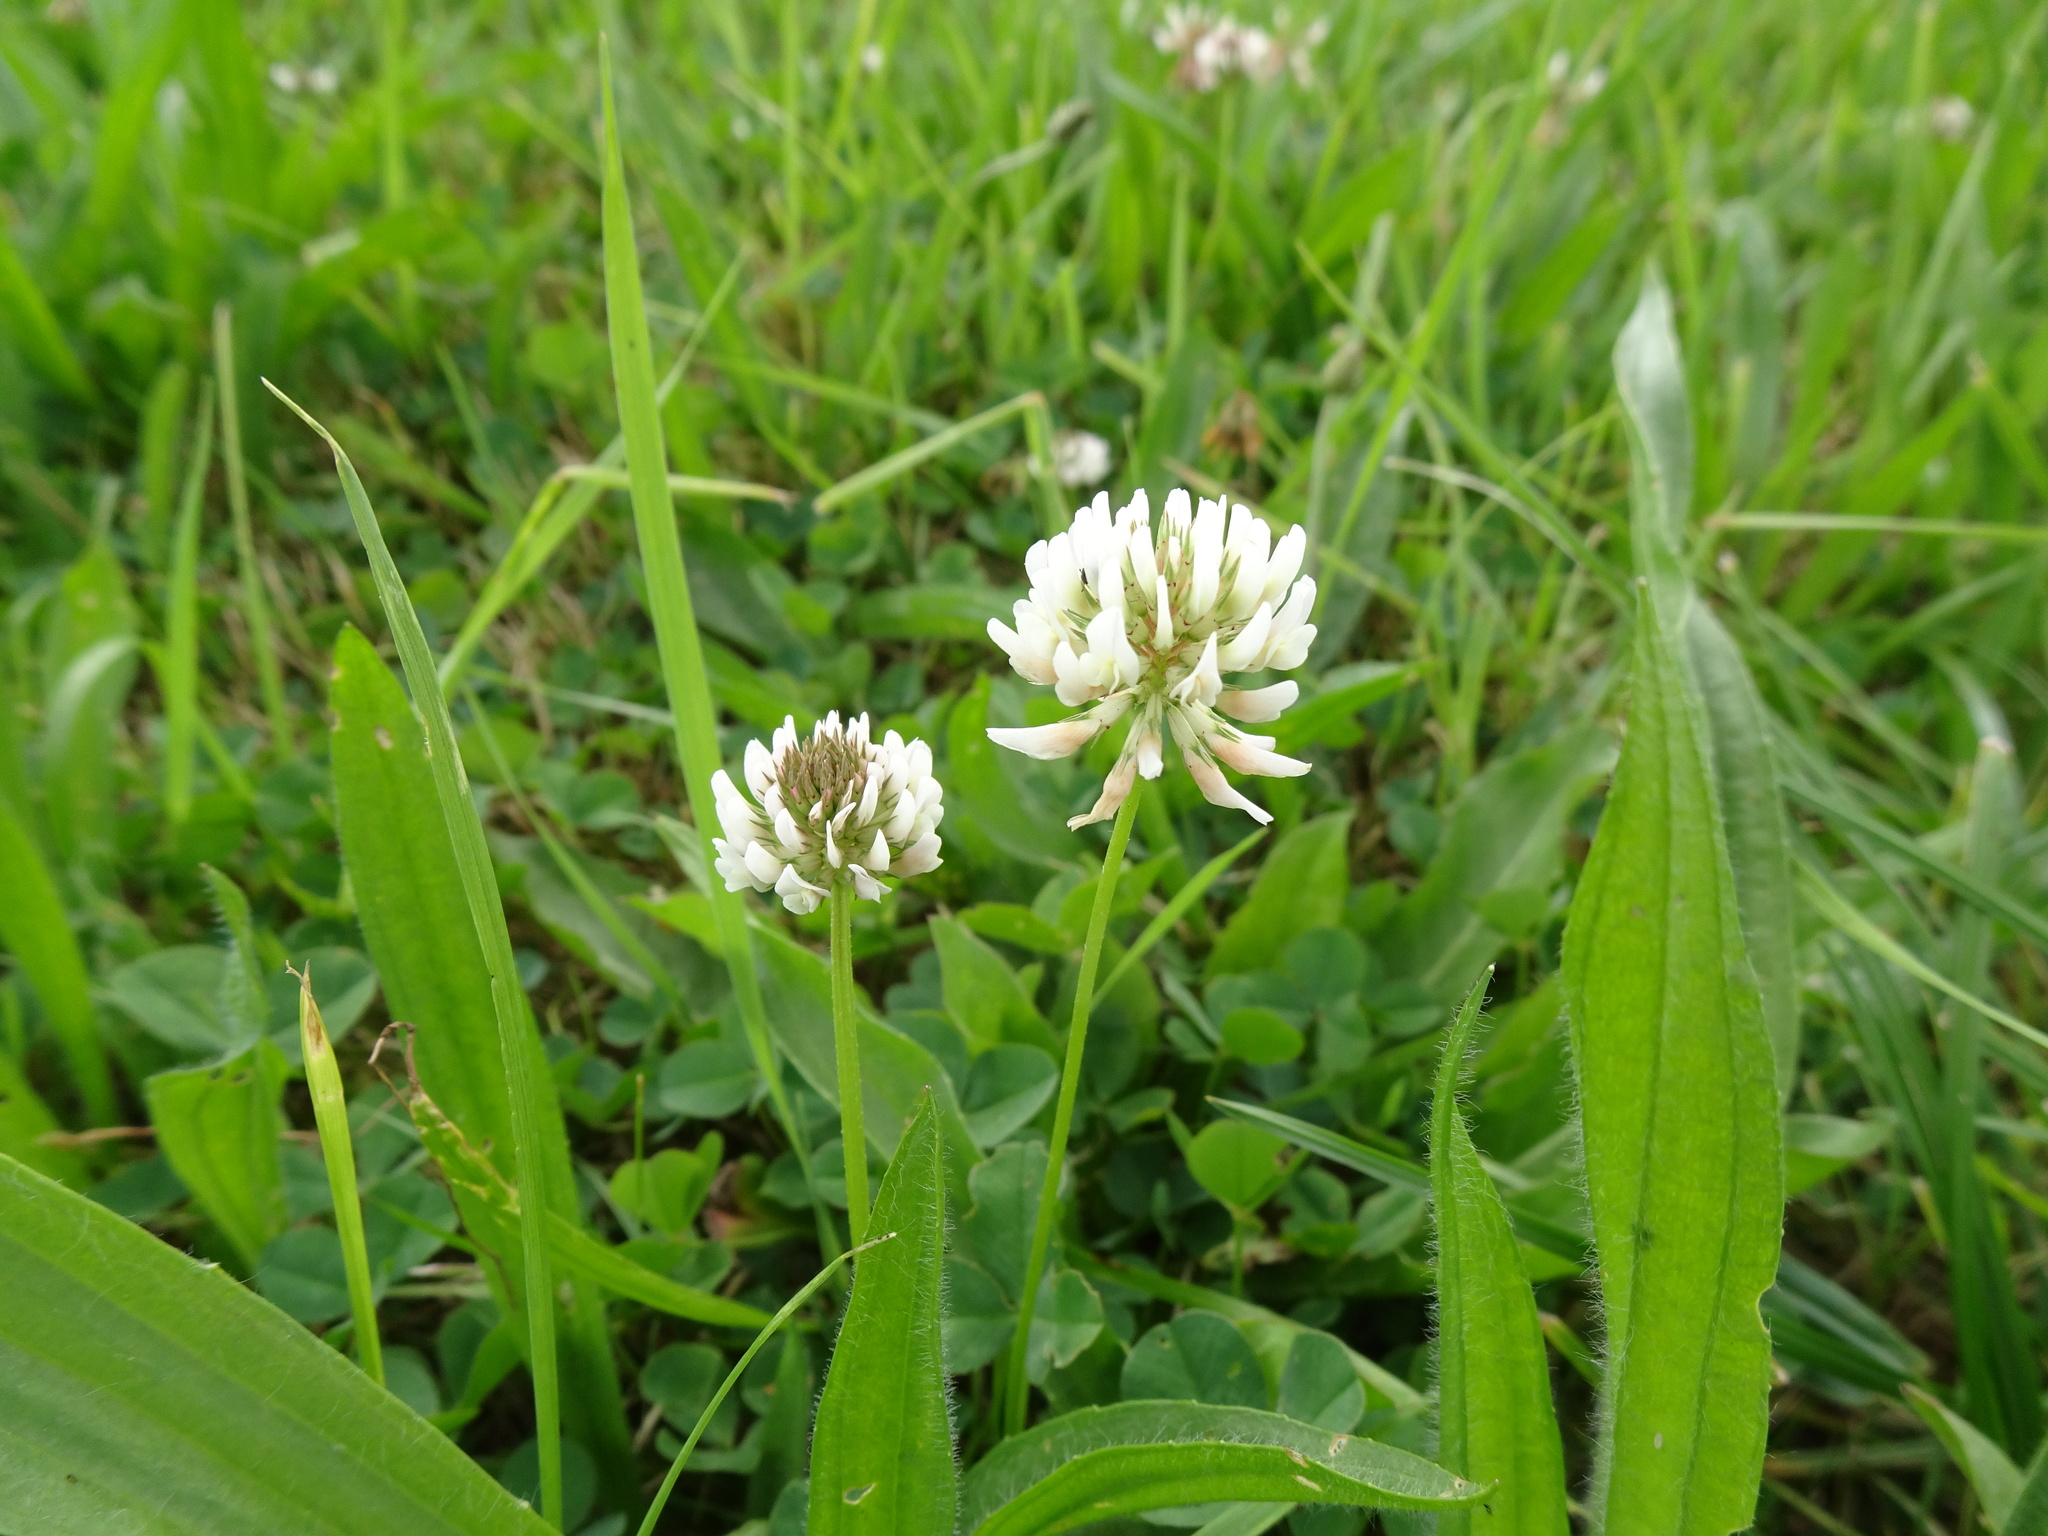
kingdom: Plantae
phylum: Tracheophyta
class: Magnoliopsida
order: Fabales
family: Fabaceae
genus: Trifolium
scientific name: Trifolium repens
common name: White clover
